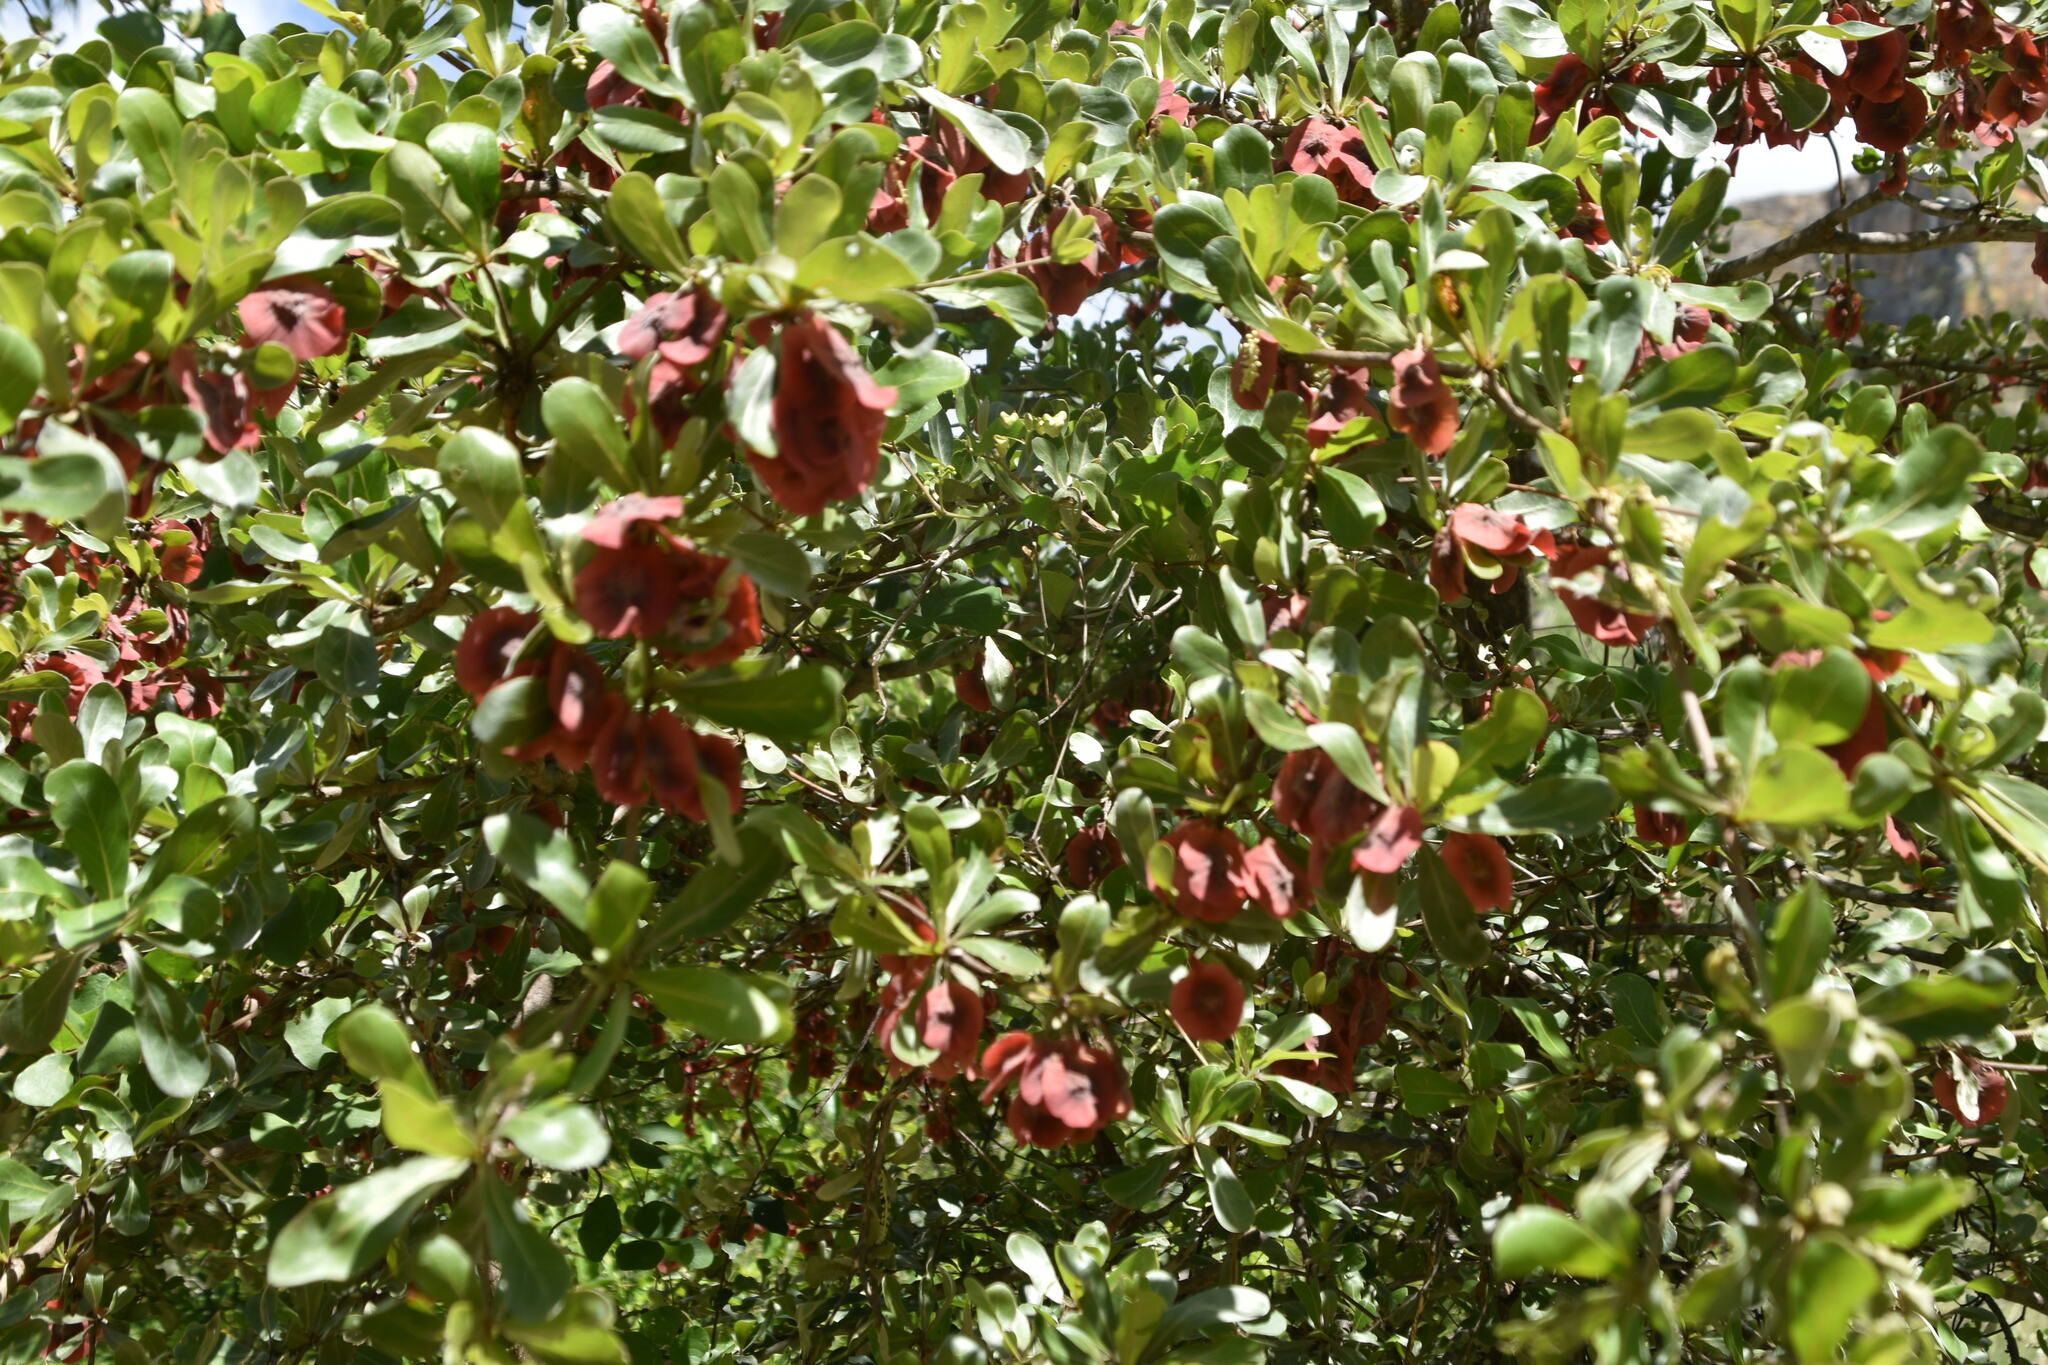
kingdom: Plantae
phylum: Tracheophyta
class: Magnoliopsida
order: Myrtales
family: Combretaceae
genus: Terminalia
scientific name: Terminalia tropophylla
